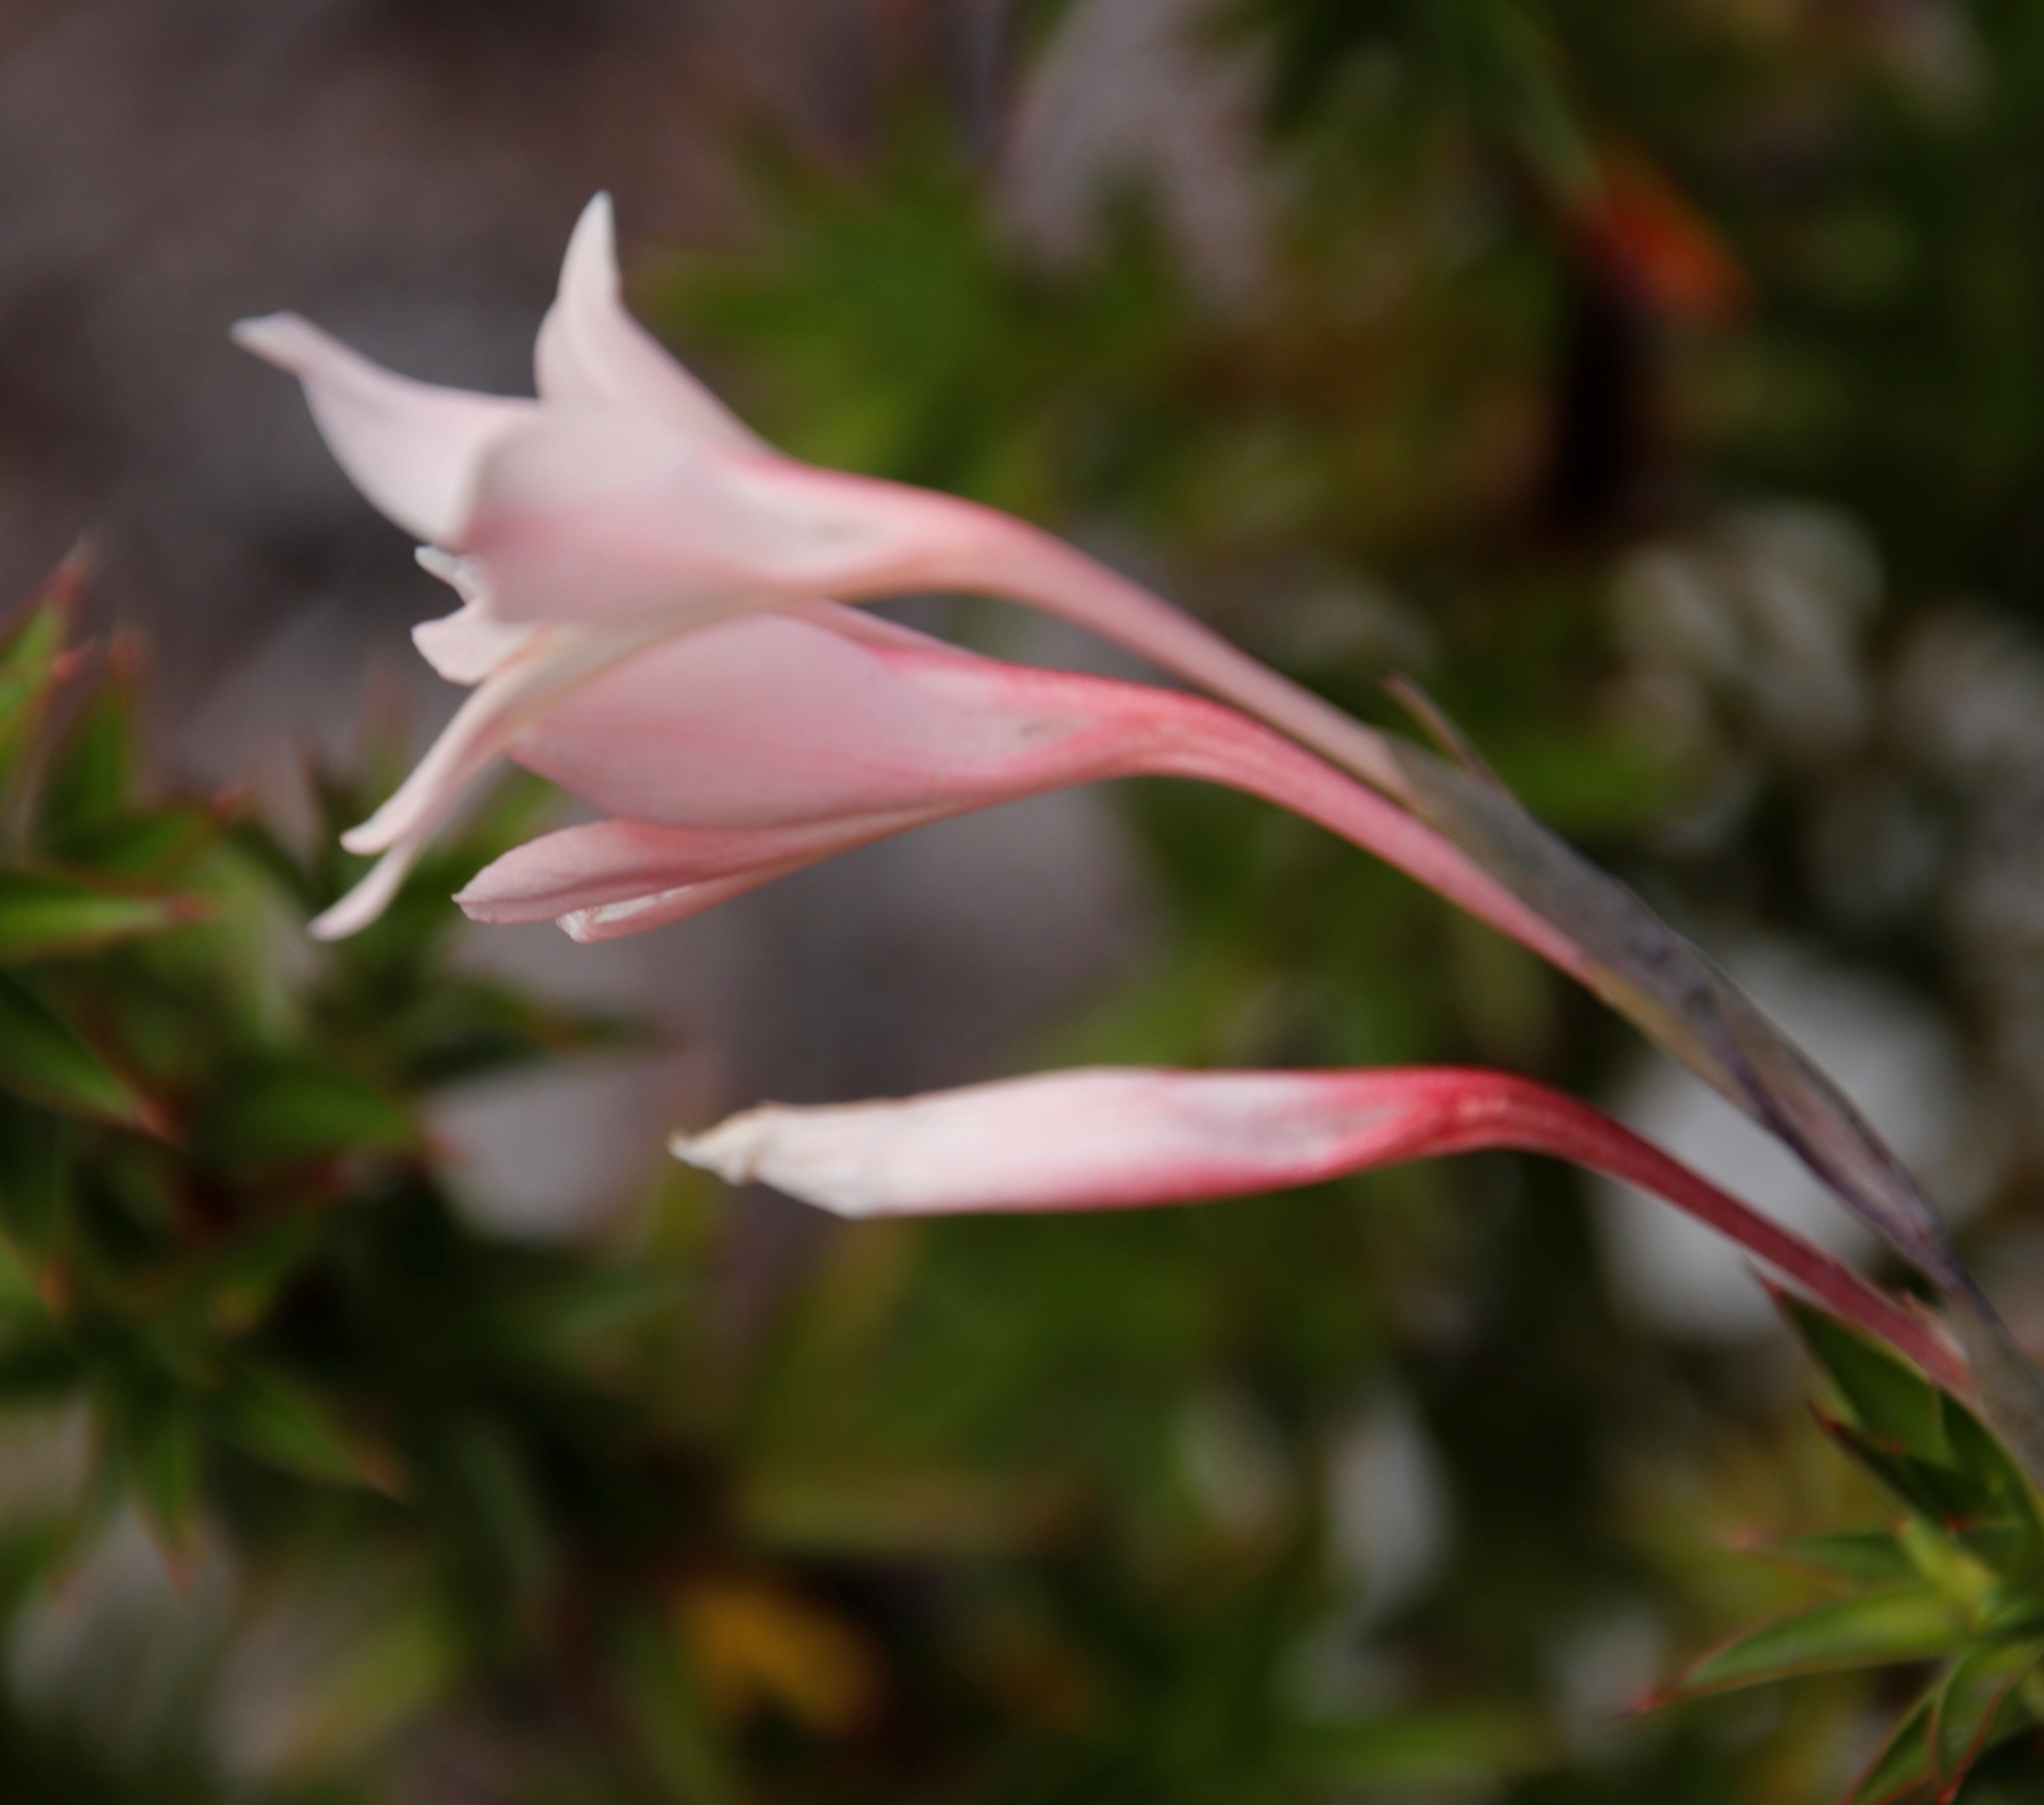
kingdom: Plantae
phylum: Tracheophyta
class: Liliopsida
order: Asparagales
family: Iridaceae
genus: Gladiolus
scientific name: Gladiolus monticola
